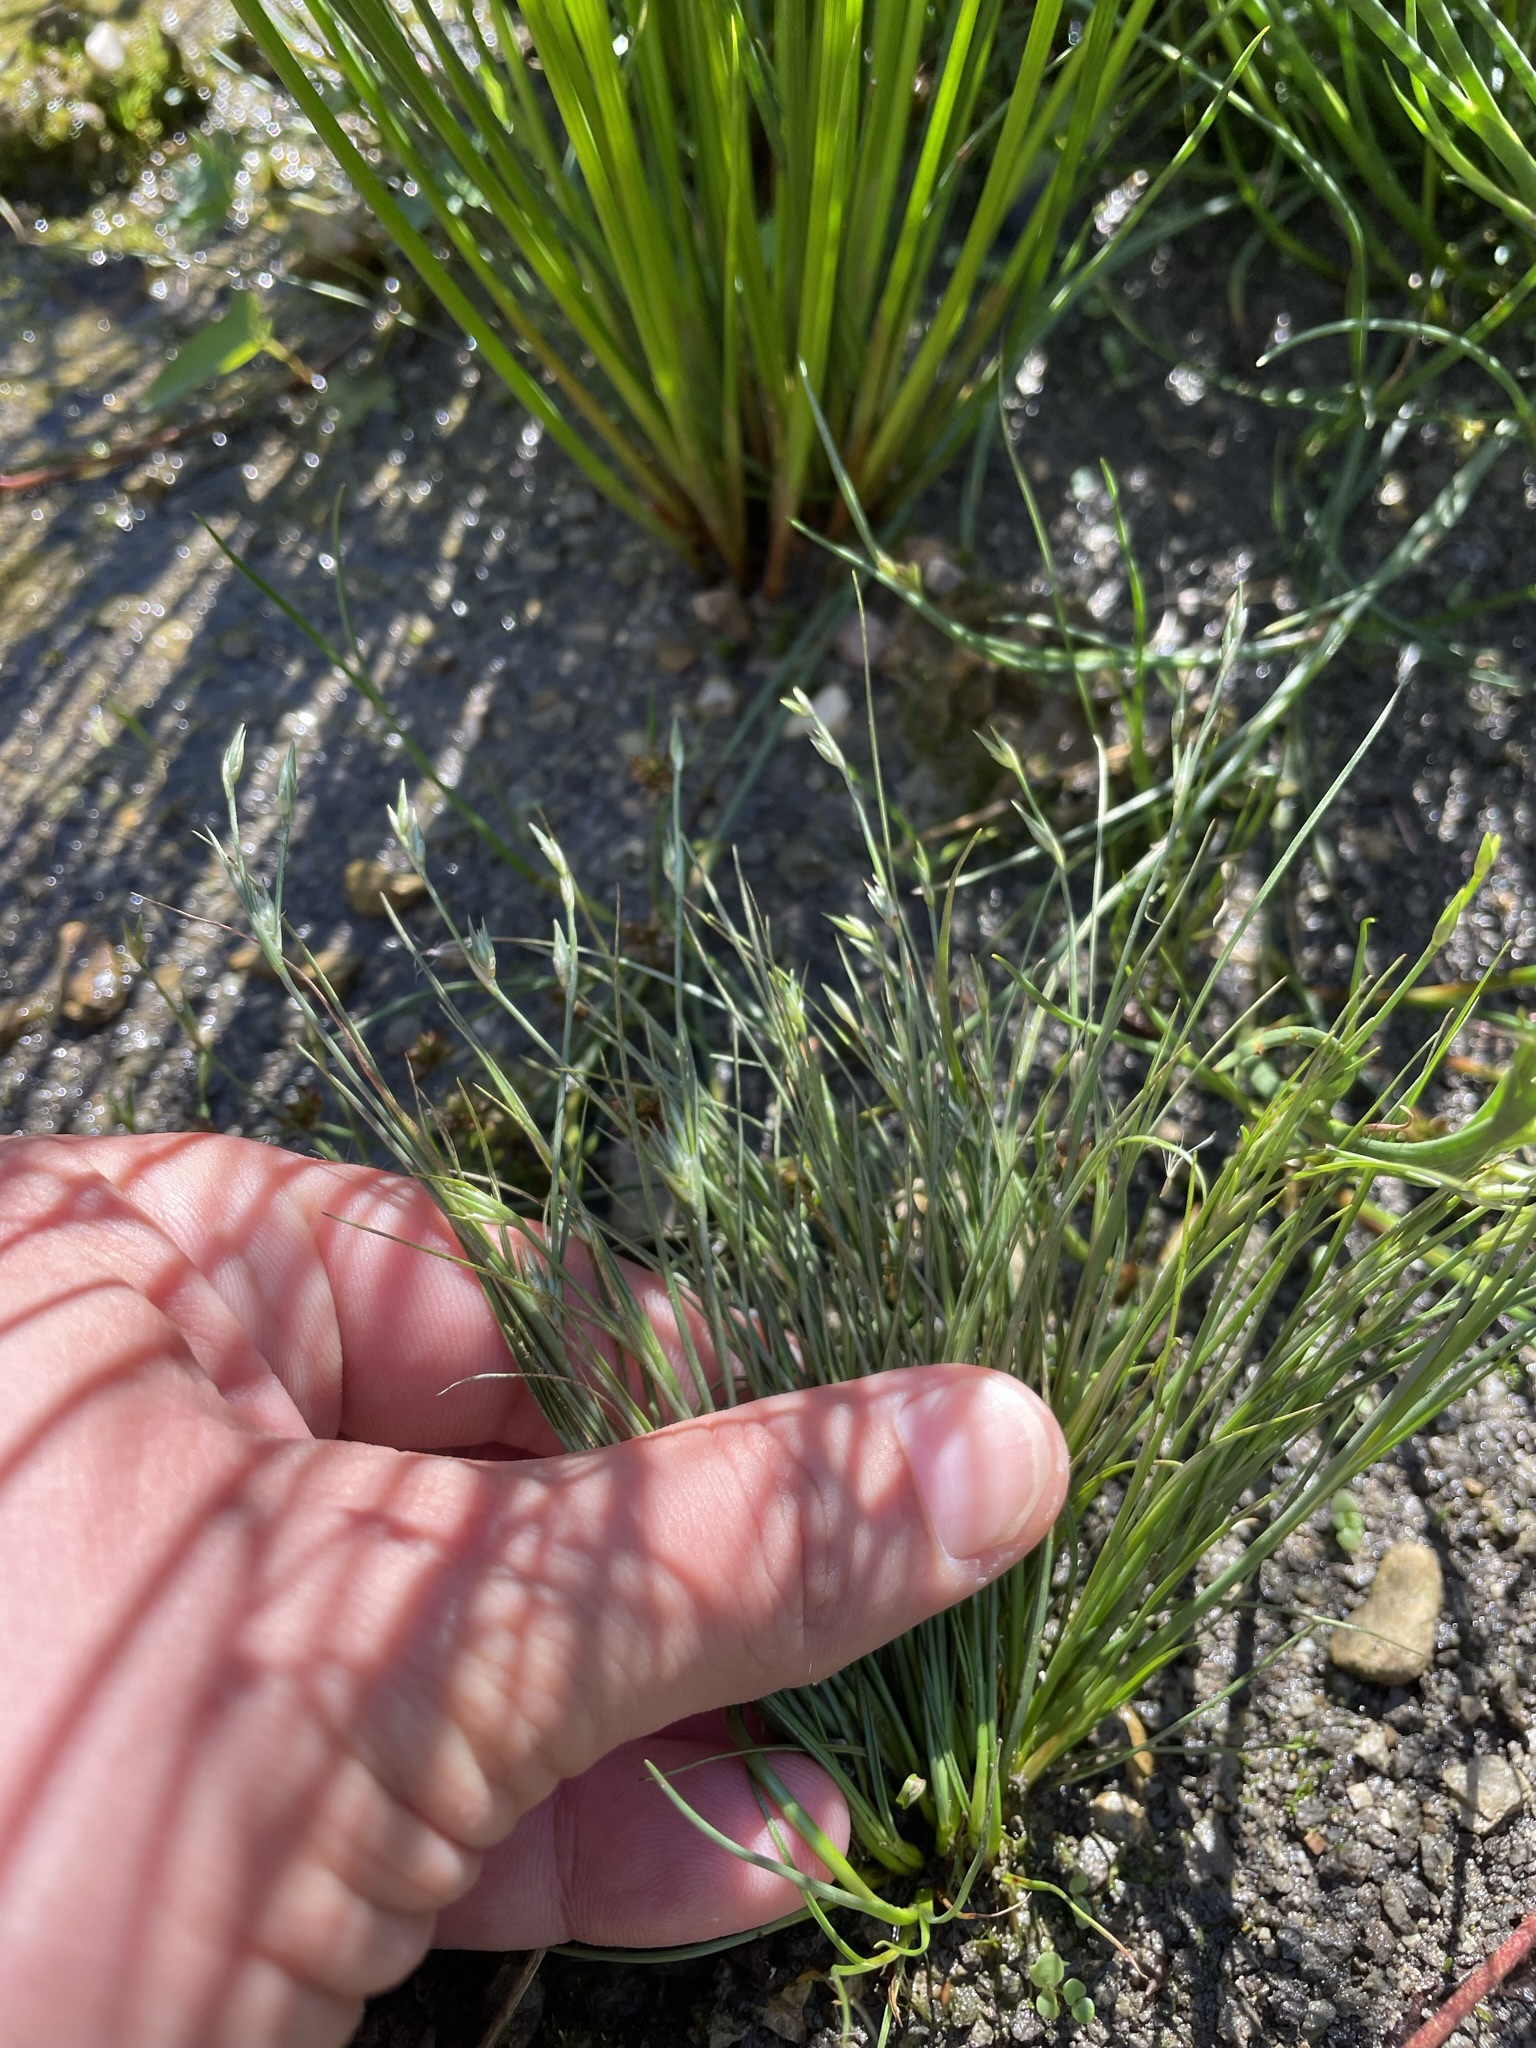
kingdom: Plantae
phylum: Tracheophyta
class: Liliopsida
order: Poales
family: Juncaceae
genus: Juncus
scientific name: Juncus bufonius
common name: Toad rush
